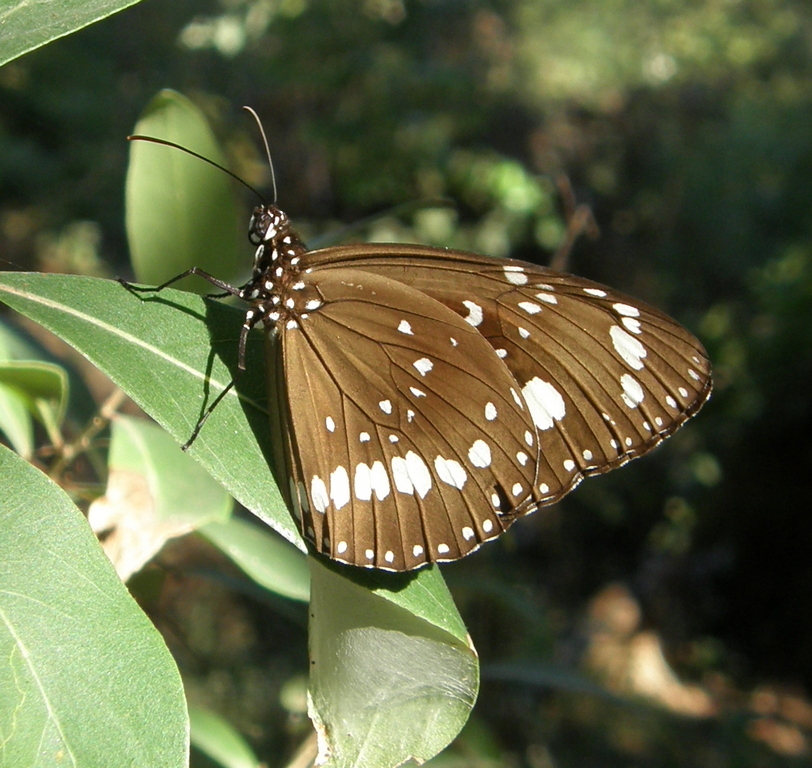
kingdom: Animalia
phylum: Arthropoda
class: Insecta
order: Lepidoptera
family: Nymphalidae
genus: Euploea
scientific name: Euploea core
